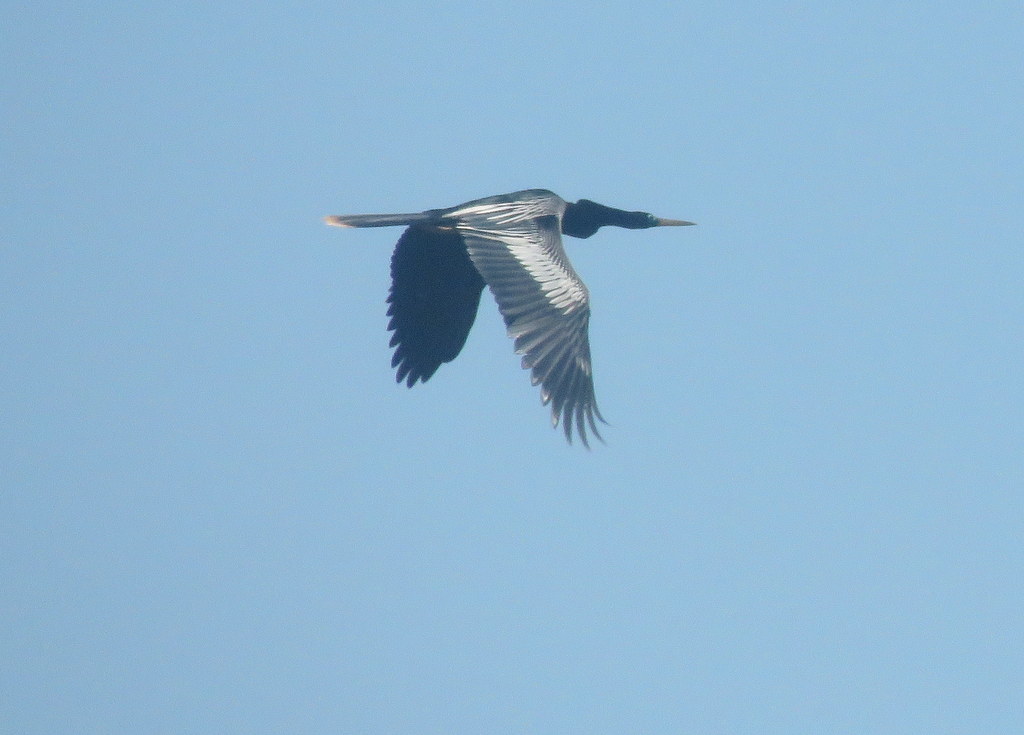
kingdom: Animalia
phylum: Chordata
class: Aves
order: Suliformes
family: Anhingidae
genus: Anhinga
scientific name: Anhinga anhinga
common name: Anhinga
